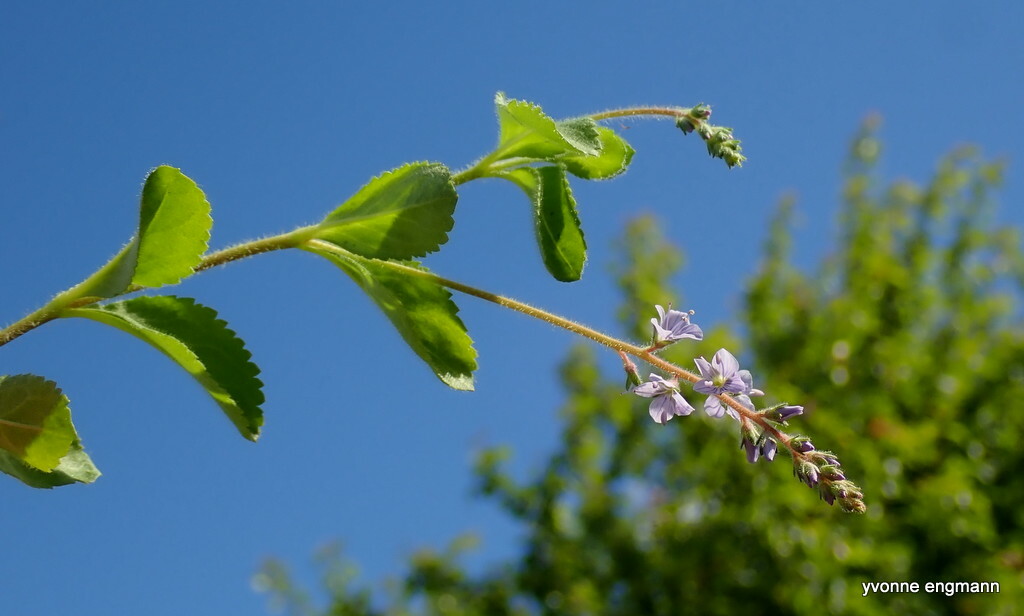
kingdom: Plantae
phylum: Tracheophyta
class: Magnoliopsida
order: Lamiales
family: Plantaginaceae
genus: Veronica
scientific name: Veronica officinalis
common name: Common speedwell
